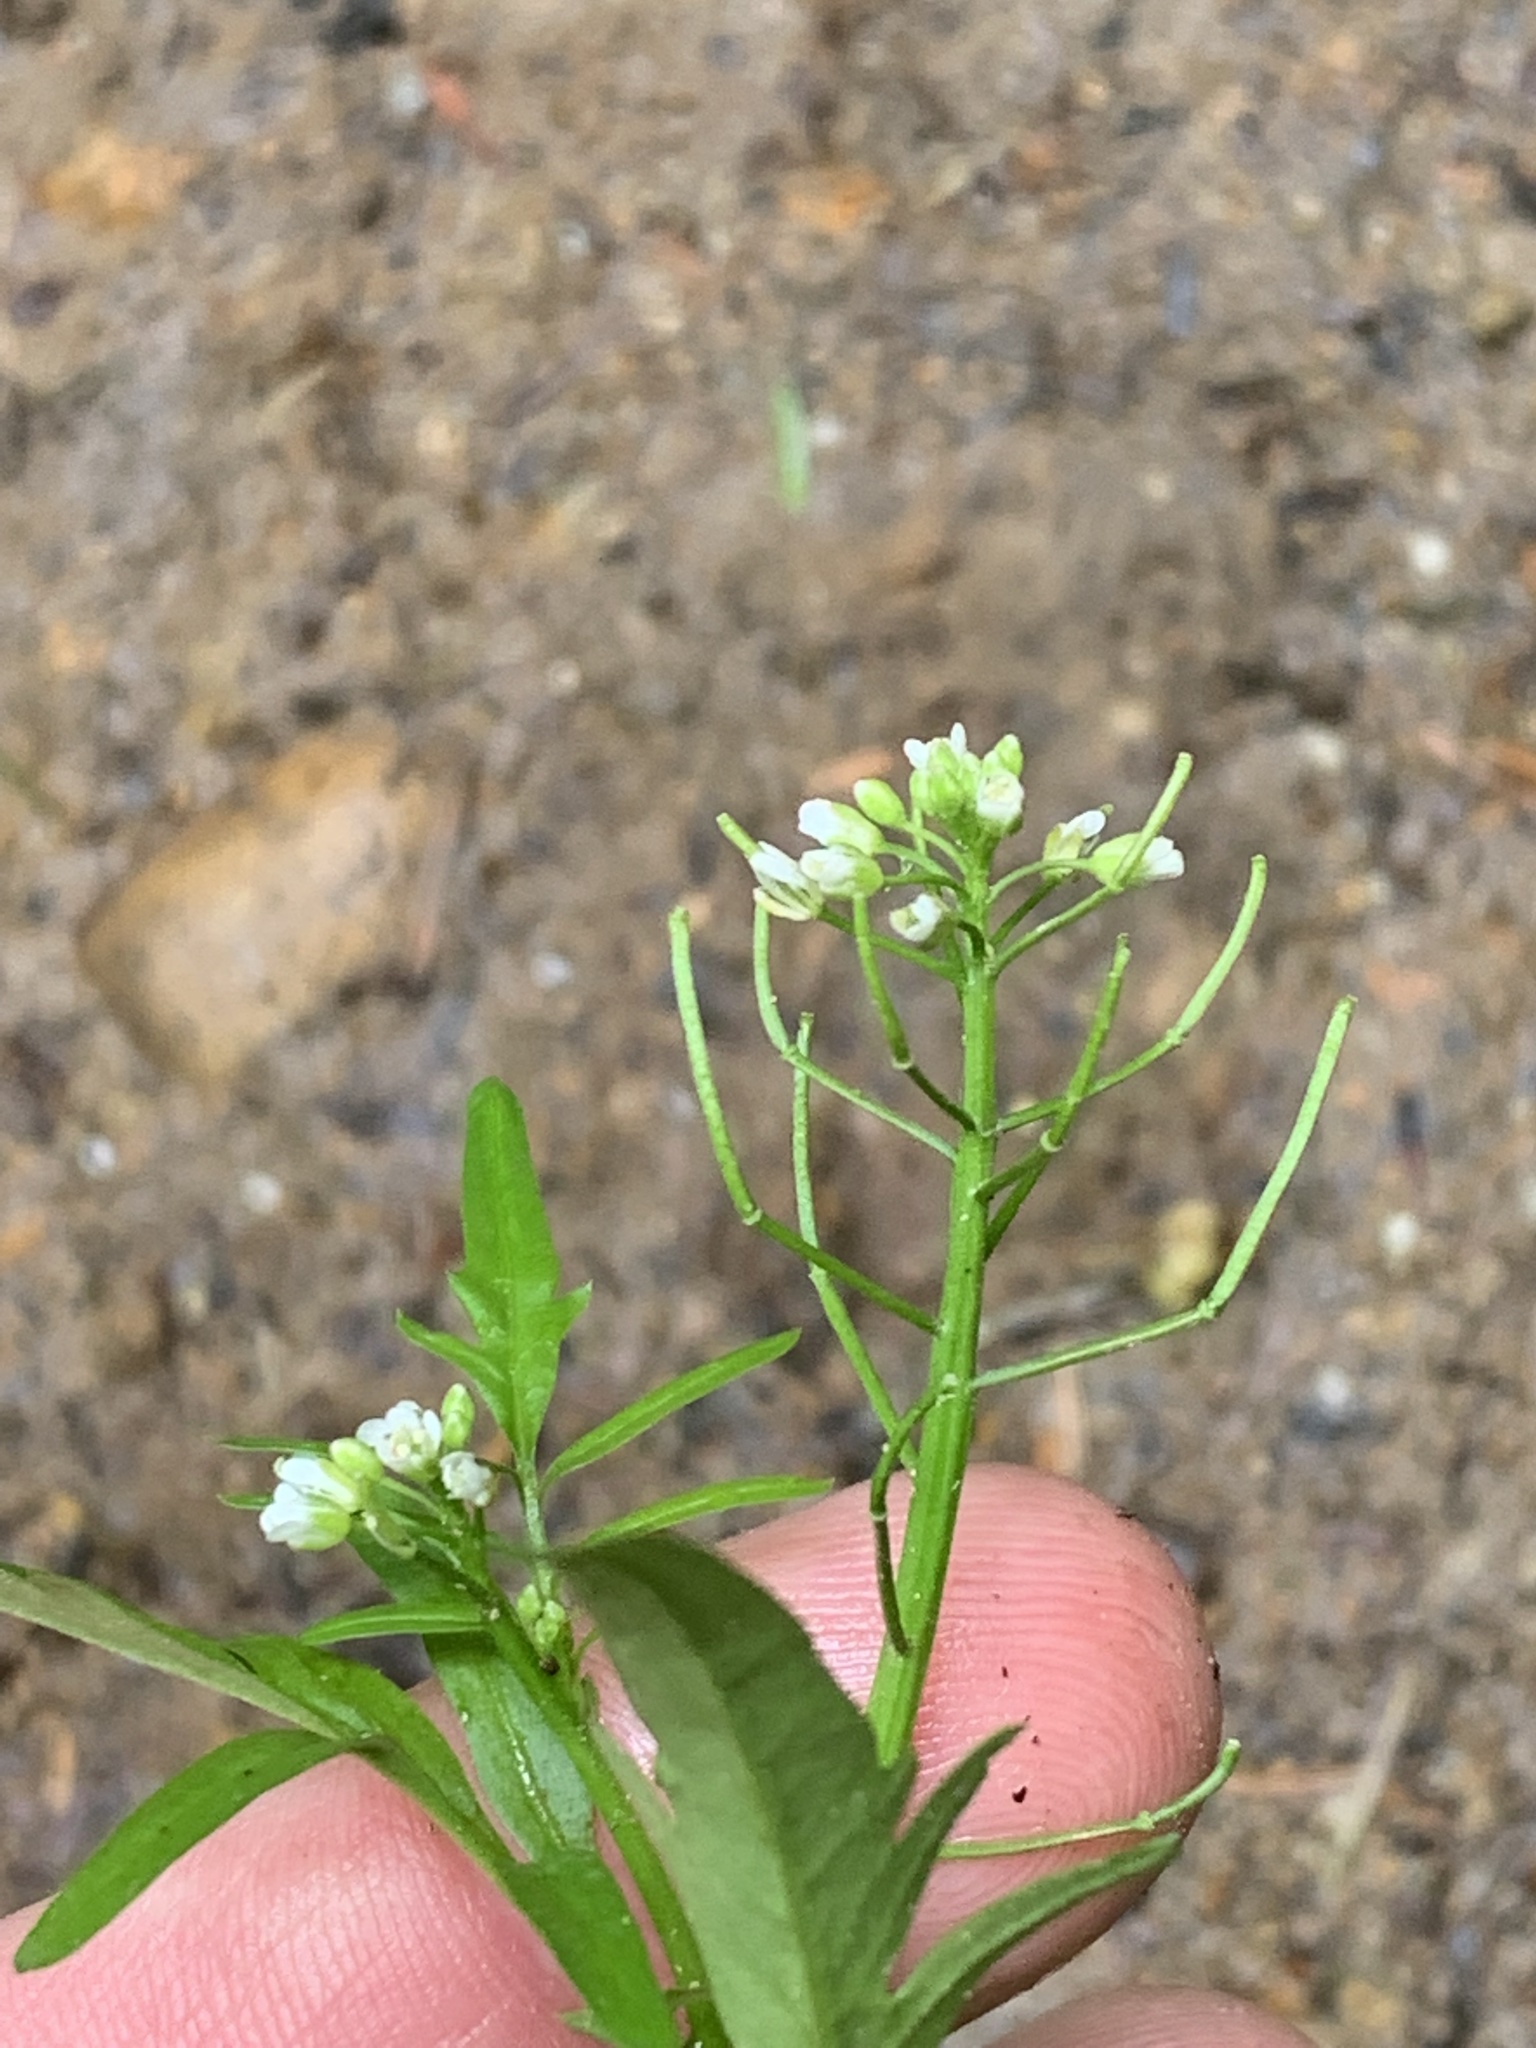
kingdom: Plantae
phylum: Tracheophyta
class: Magnoliopsida
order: Brassicales
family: Brassicaceae
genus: Cardamine
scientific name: Cardamine pensylvanica
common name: Pennsylvania bittercress
